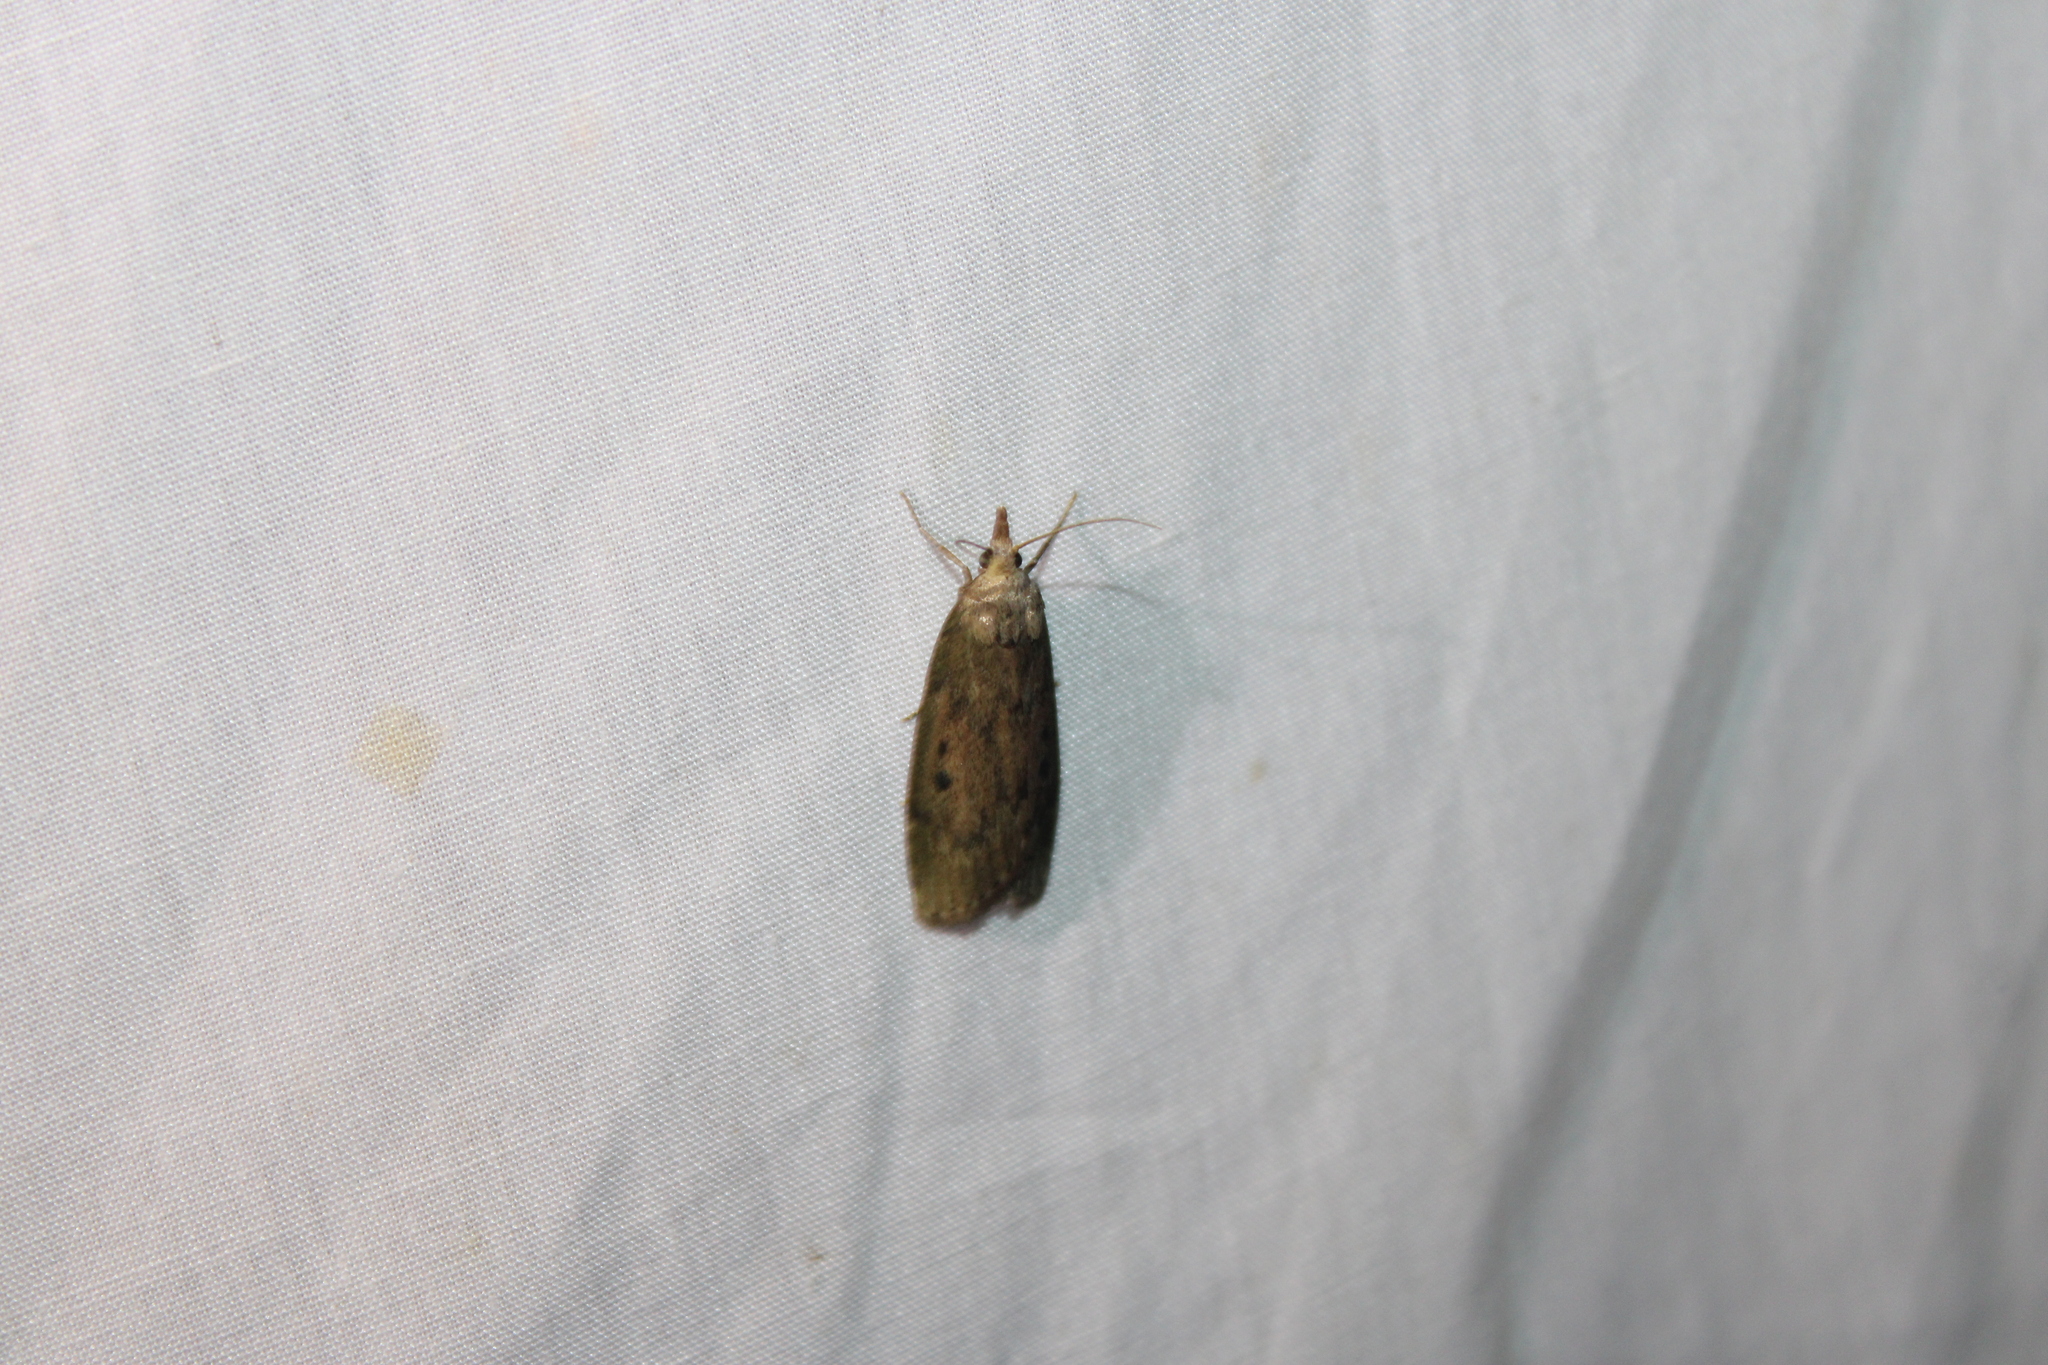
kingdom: Animalia
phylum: Arthropoda
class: Insecta
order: Lepidoptera
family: Pyralidae
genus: Aphomia
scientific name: Aphomia sociella
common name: Bee moth
